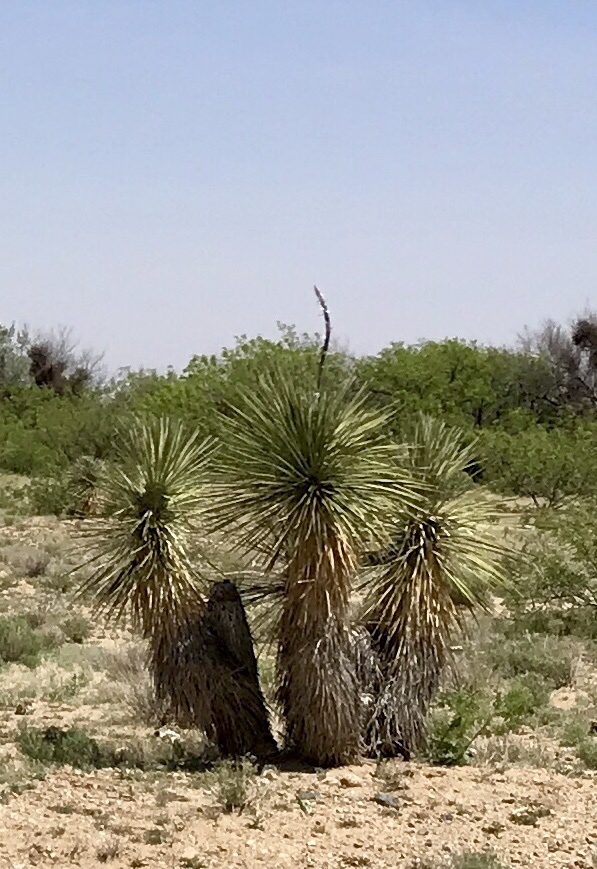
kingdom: Plantae
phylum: Tracheophyta
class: Liliopsida
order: Asparagales
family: Asparagaceae
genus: Yucca
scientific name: Yucca elata
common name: Palmella
